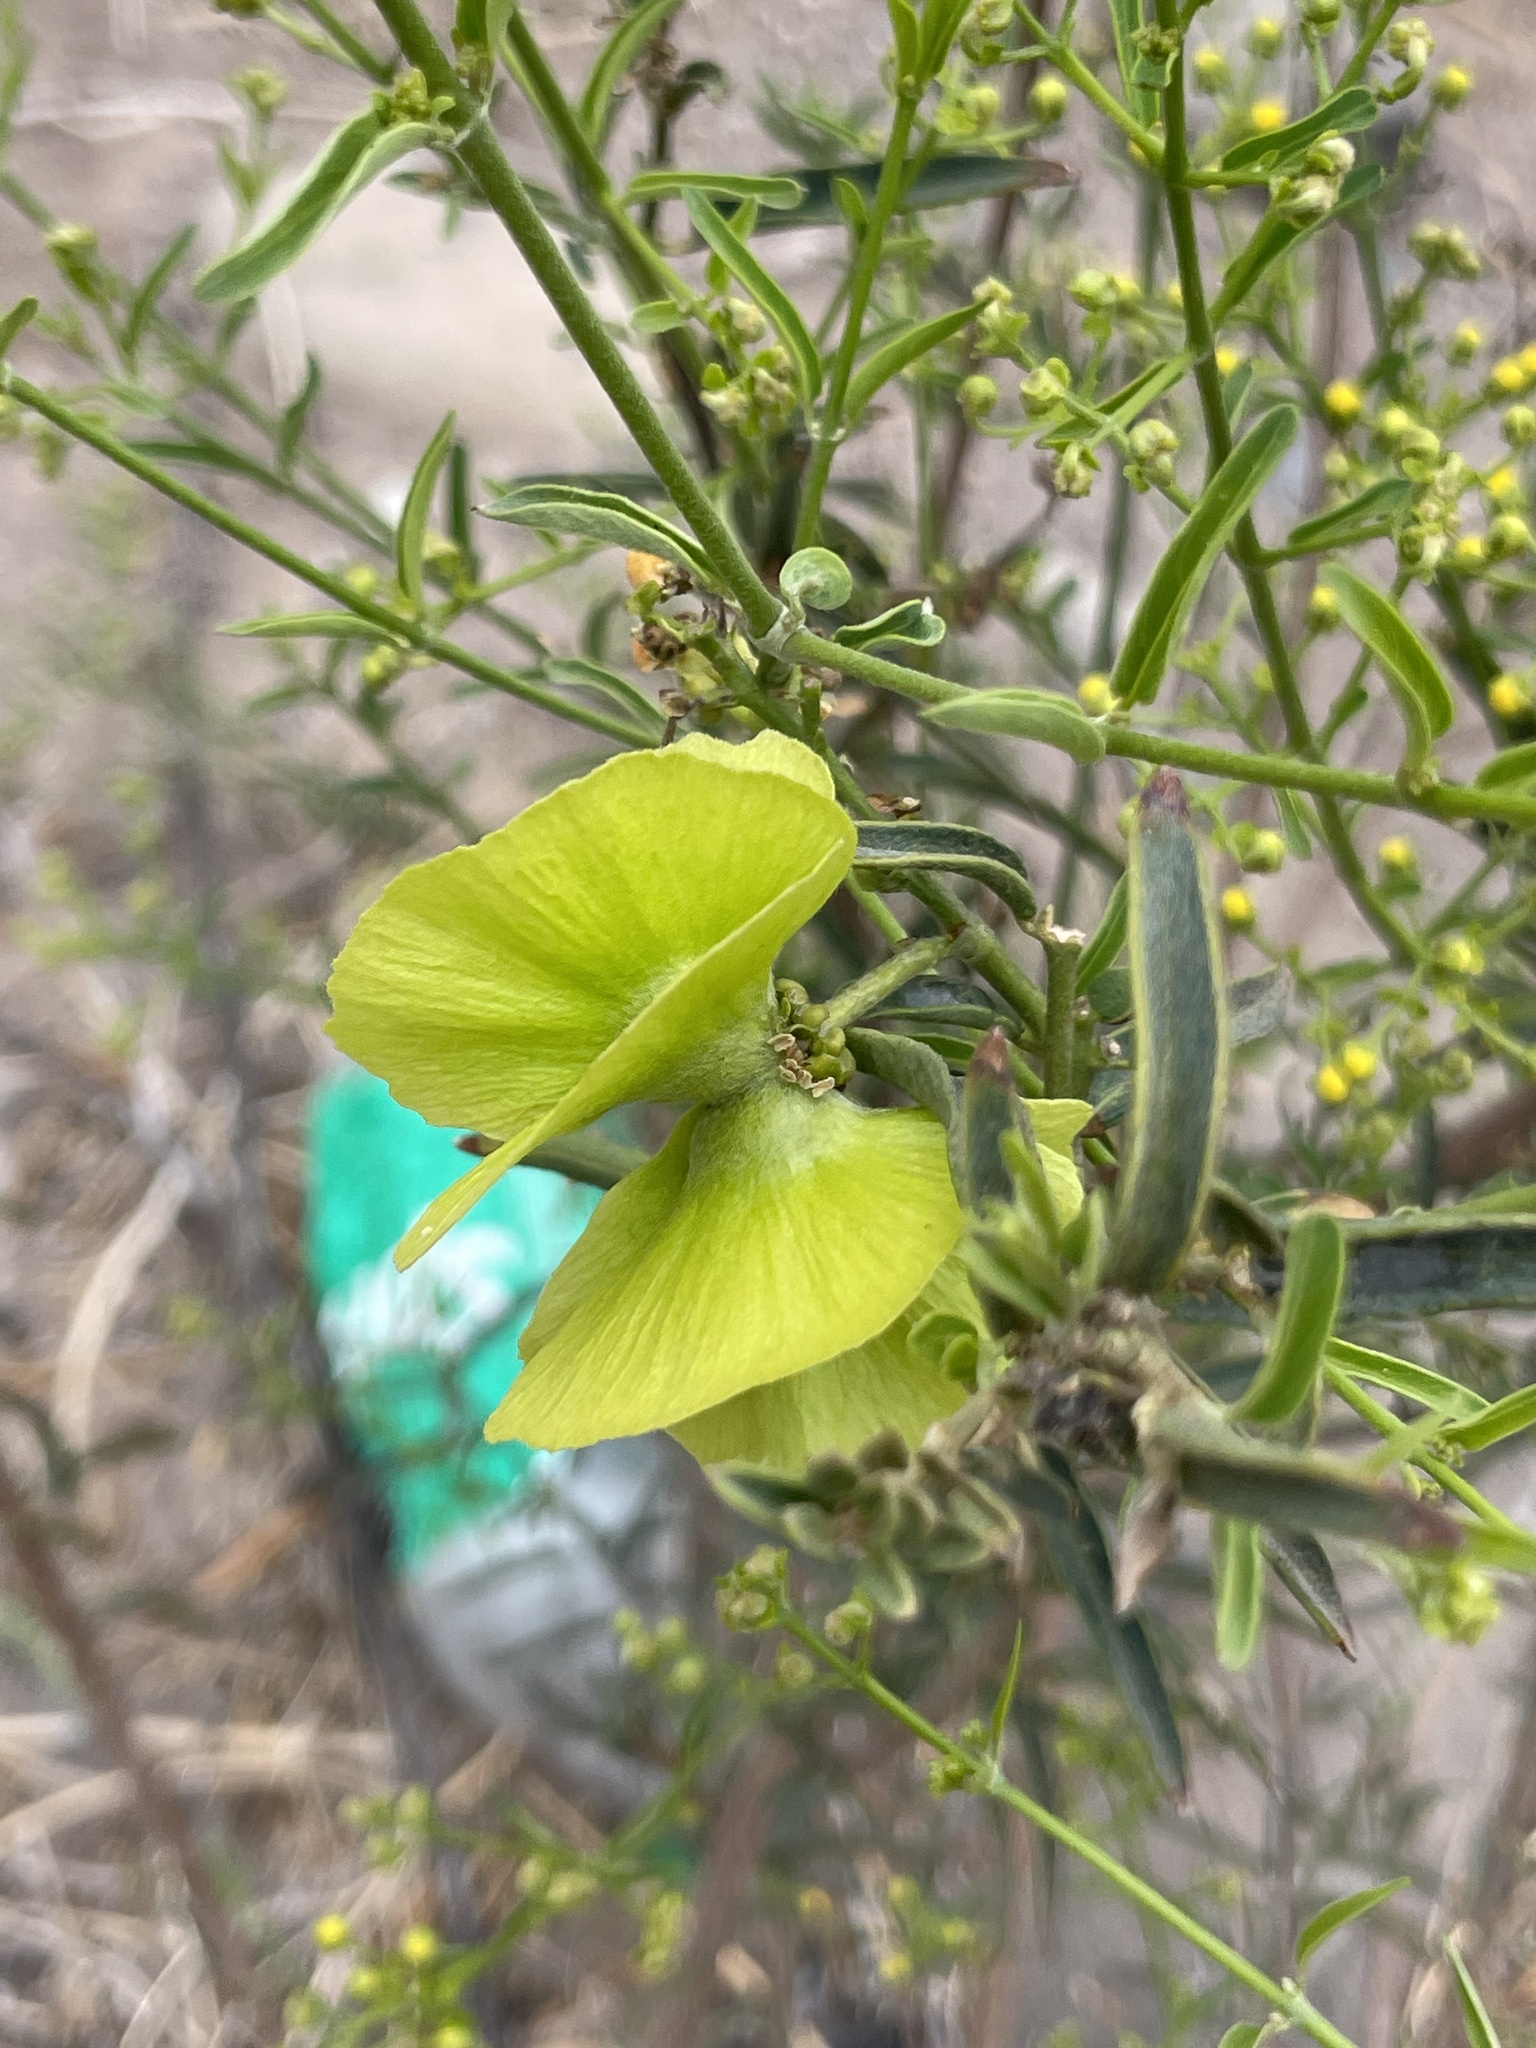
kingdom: Plantae
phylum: Tracheophyta
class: Magnoliopsida
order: Malpighiales
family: Malpighiaceae
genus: Callaeum
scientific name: Callaeum macropterum
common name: Mexican butterfly-vine
